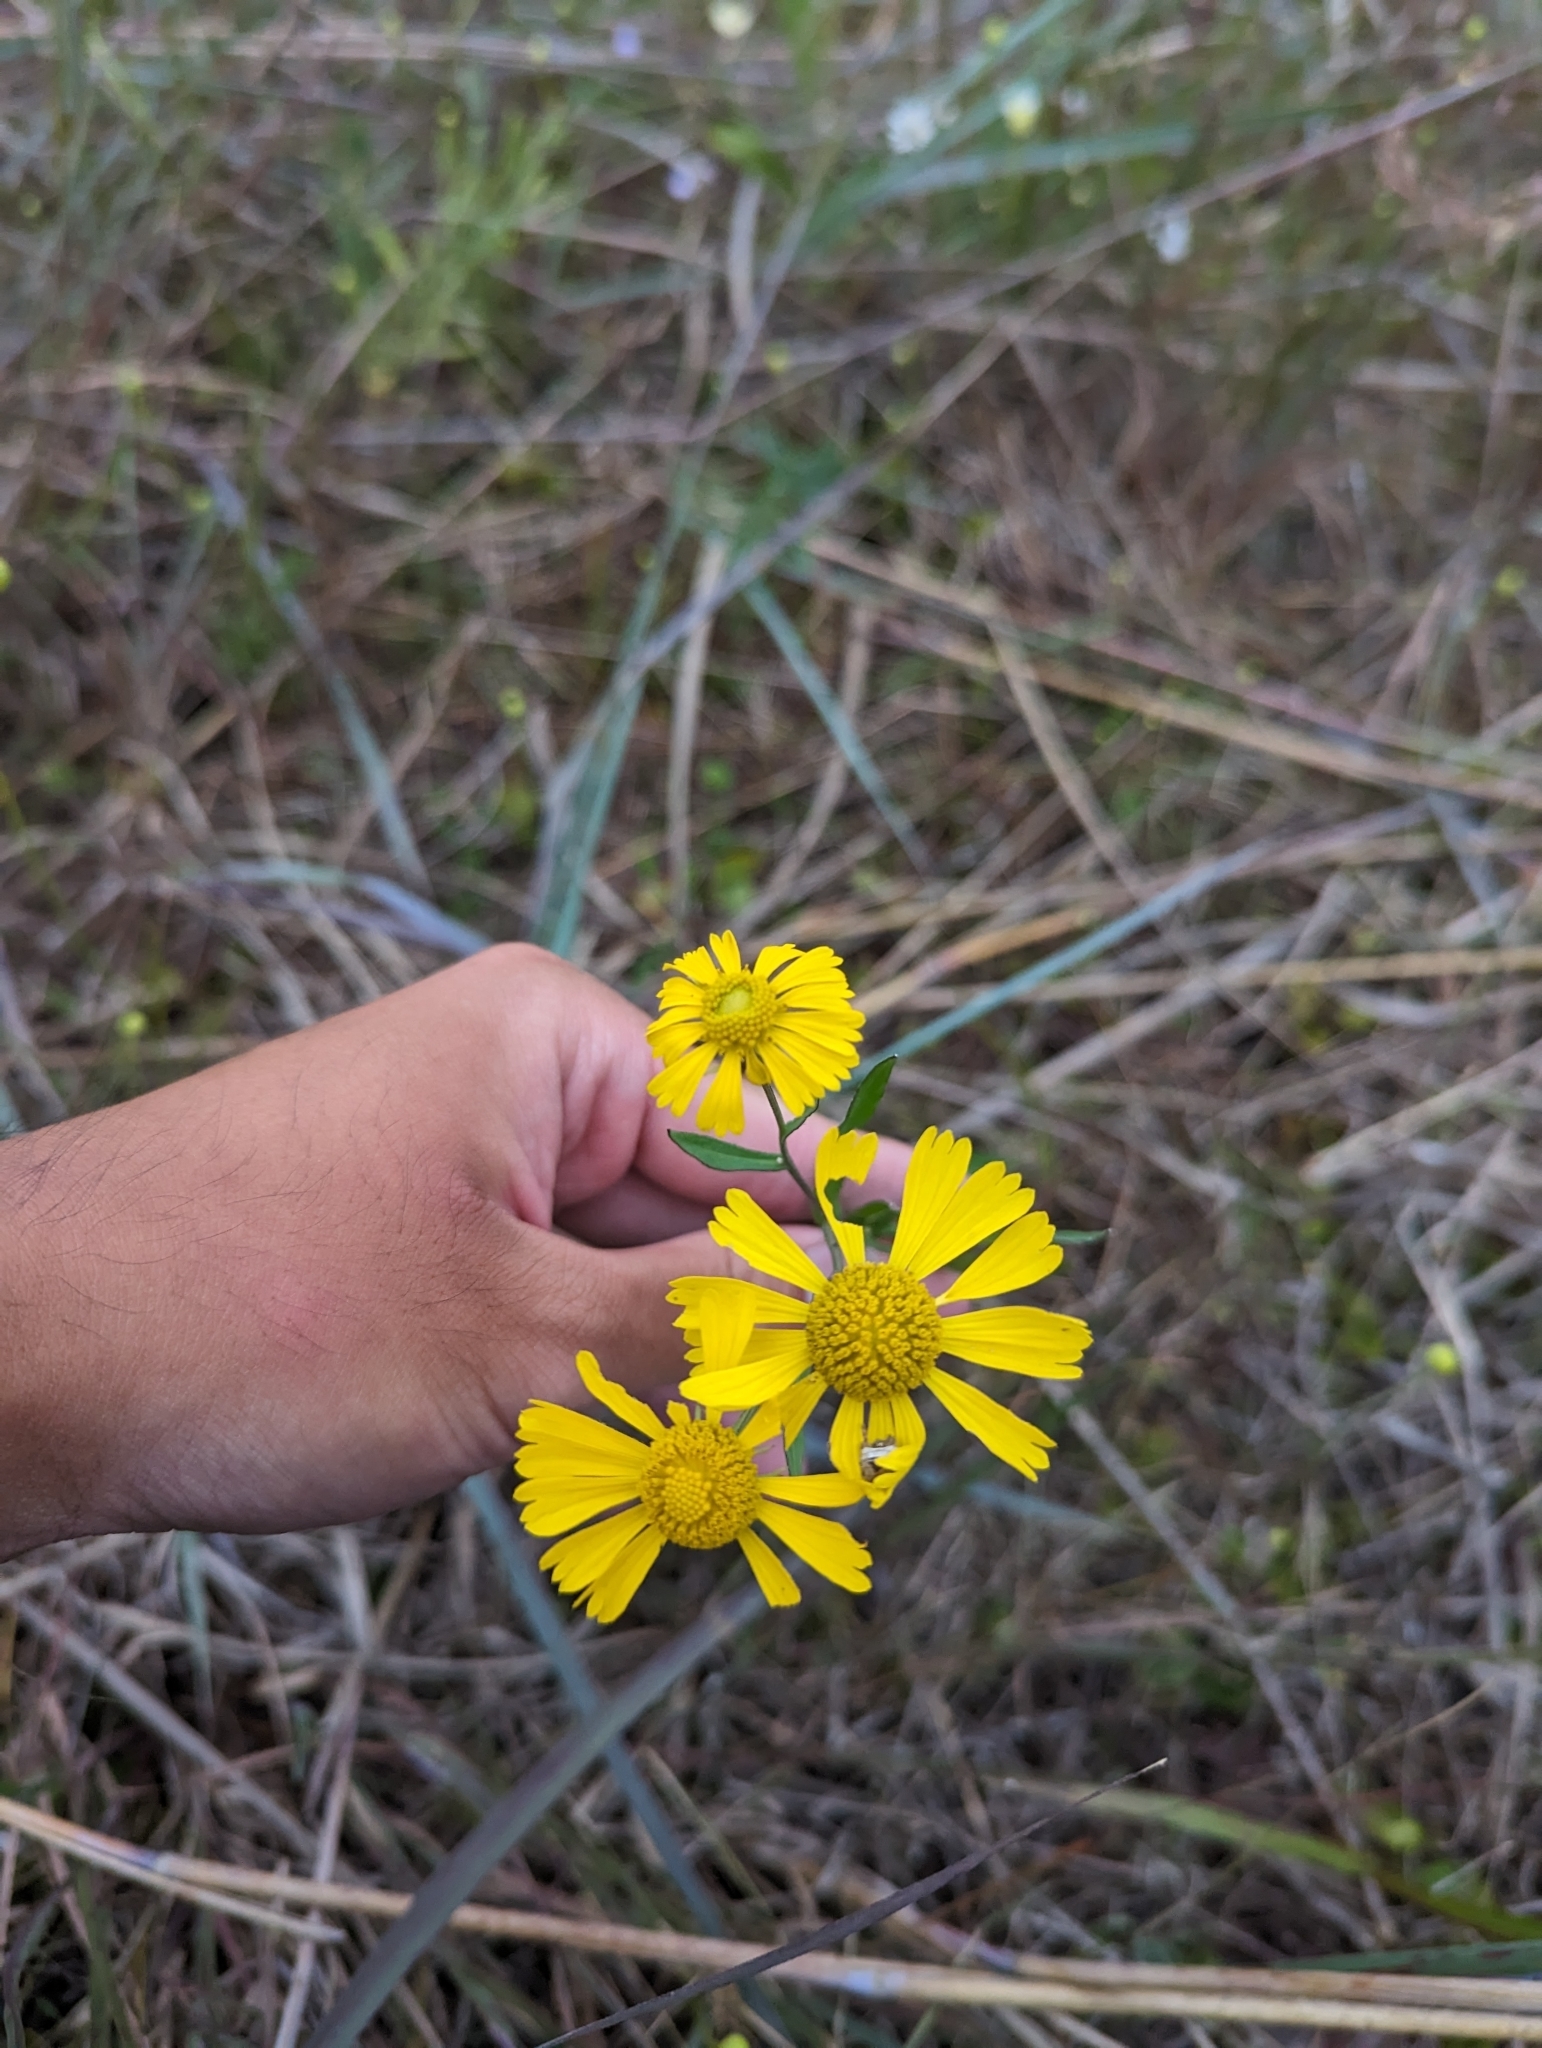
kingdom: Plantae
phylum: Tracheophyta
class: Magnoliopsida
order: Asterales
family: Asteraceae
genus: Helenium
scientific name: Helenium autumnale
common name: Sneezeweed
